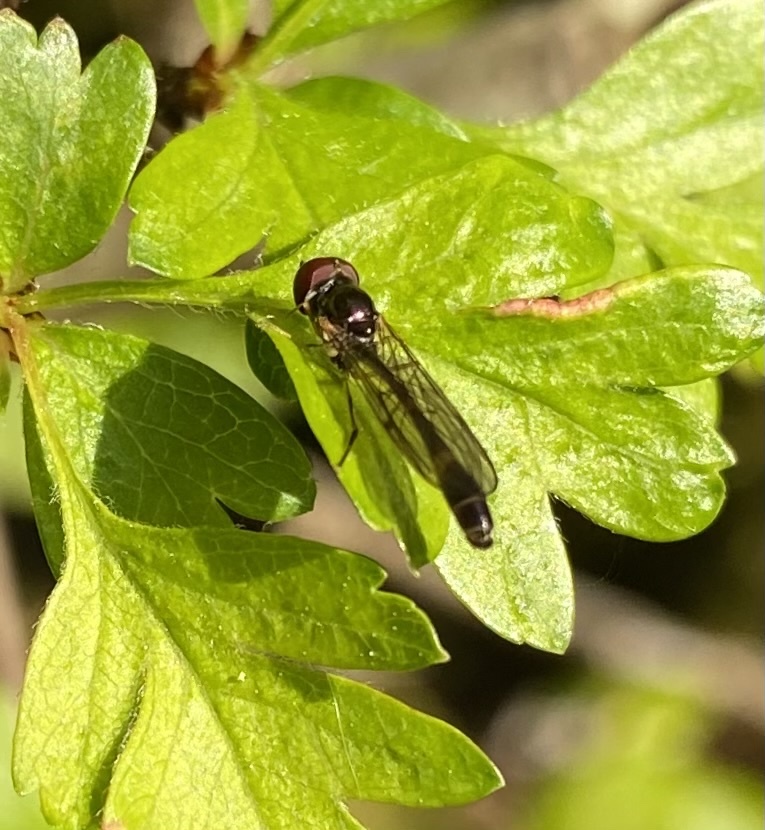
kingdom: Animalia
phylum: Arthropoda
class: Insecta
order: Diptera
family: Syrphidae
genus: Baccha
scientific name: Baccha elongata
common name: Common dainty
